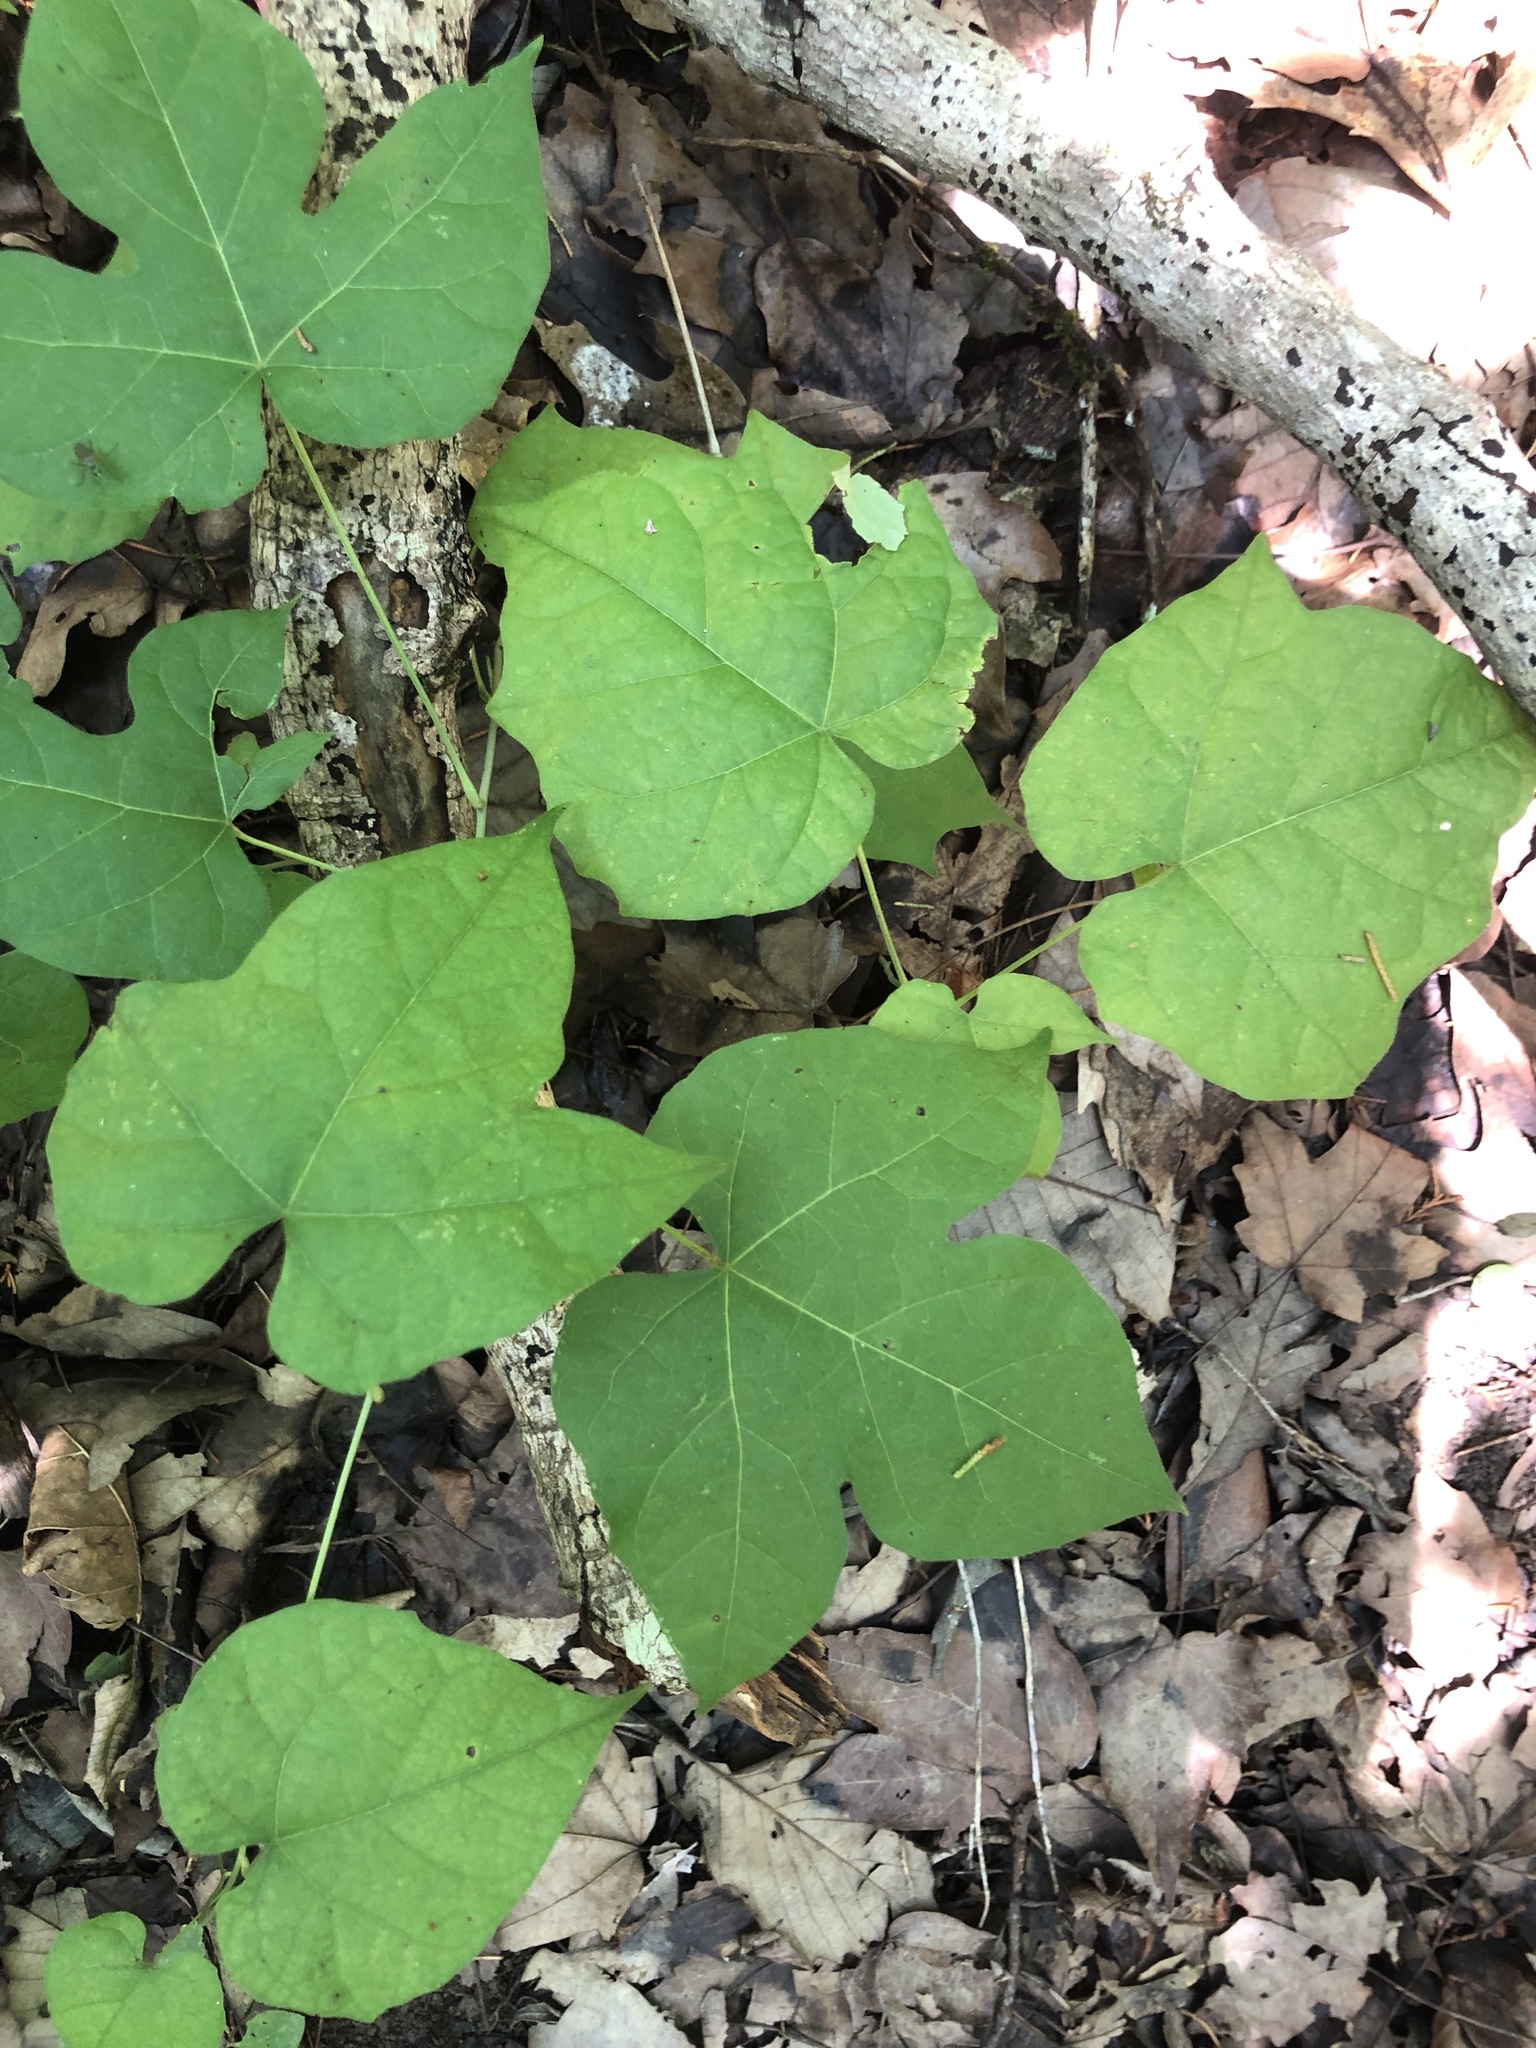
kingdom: Plantae
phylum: Tracheophyta
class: Magnoliopsida
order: Ranunculales
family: Menispermaceae
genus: Calycocarpum
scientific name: Calycocarpum lyonii
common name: Cupseed
